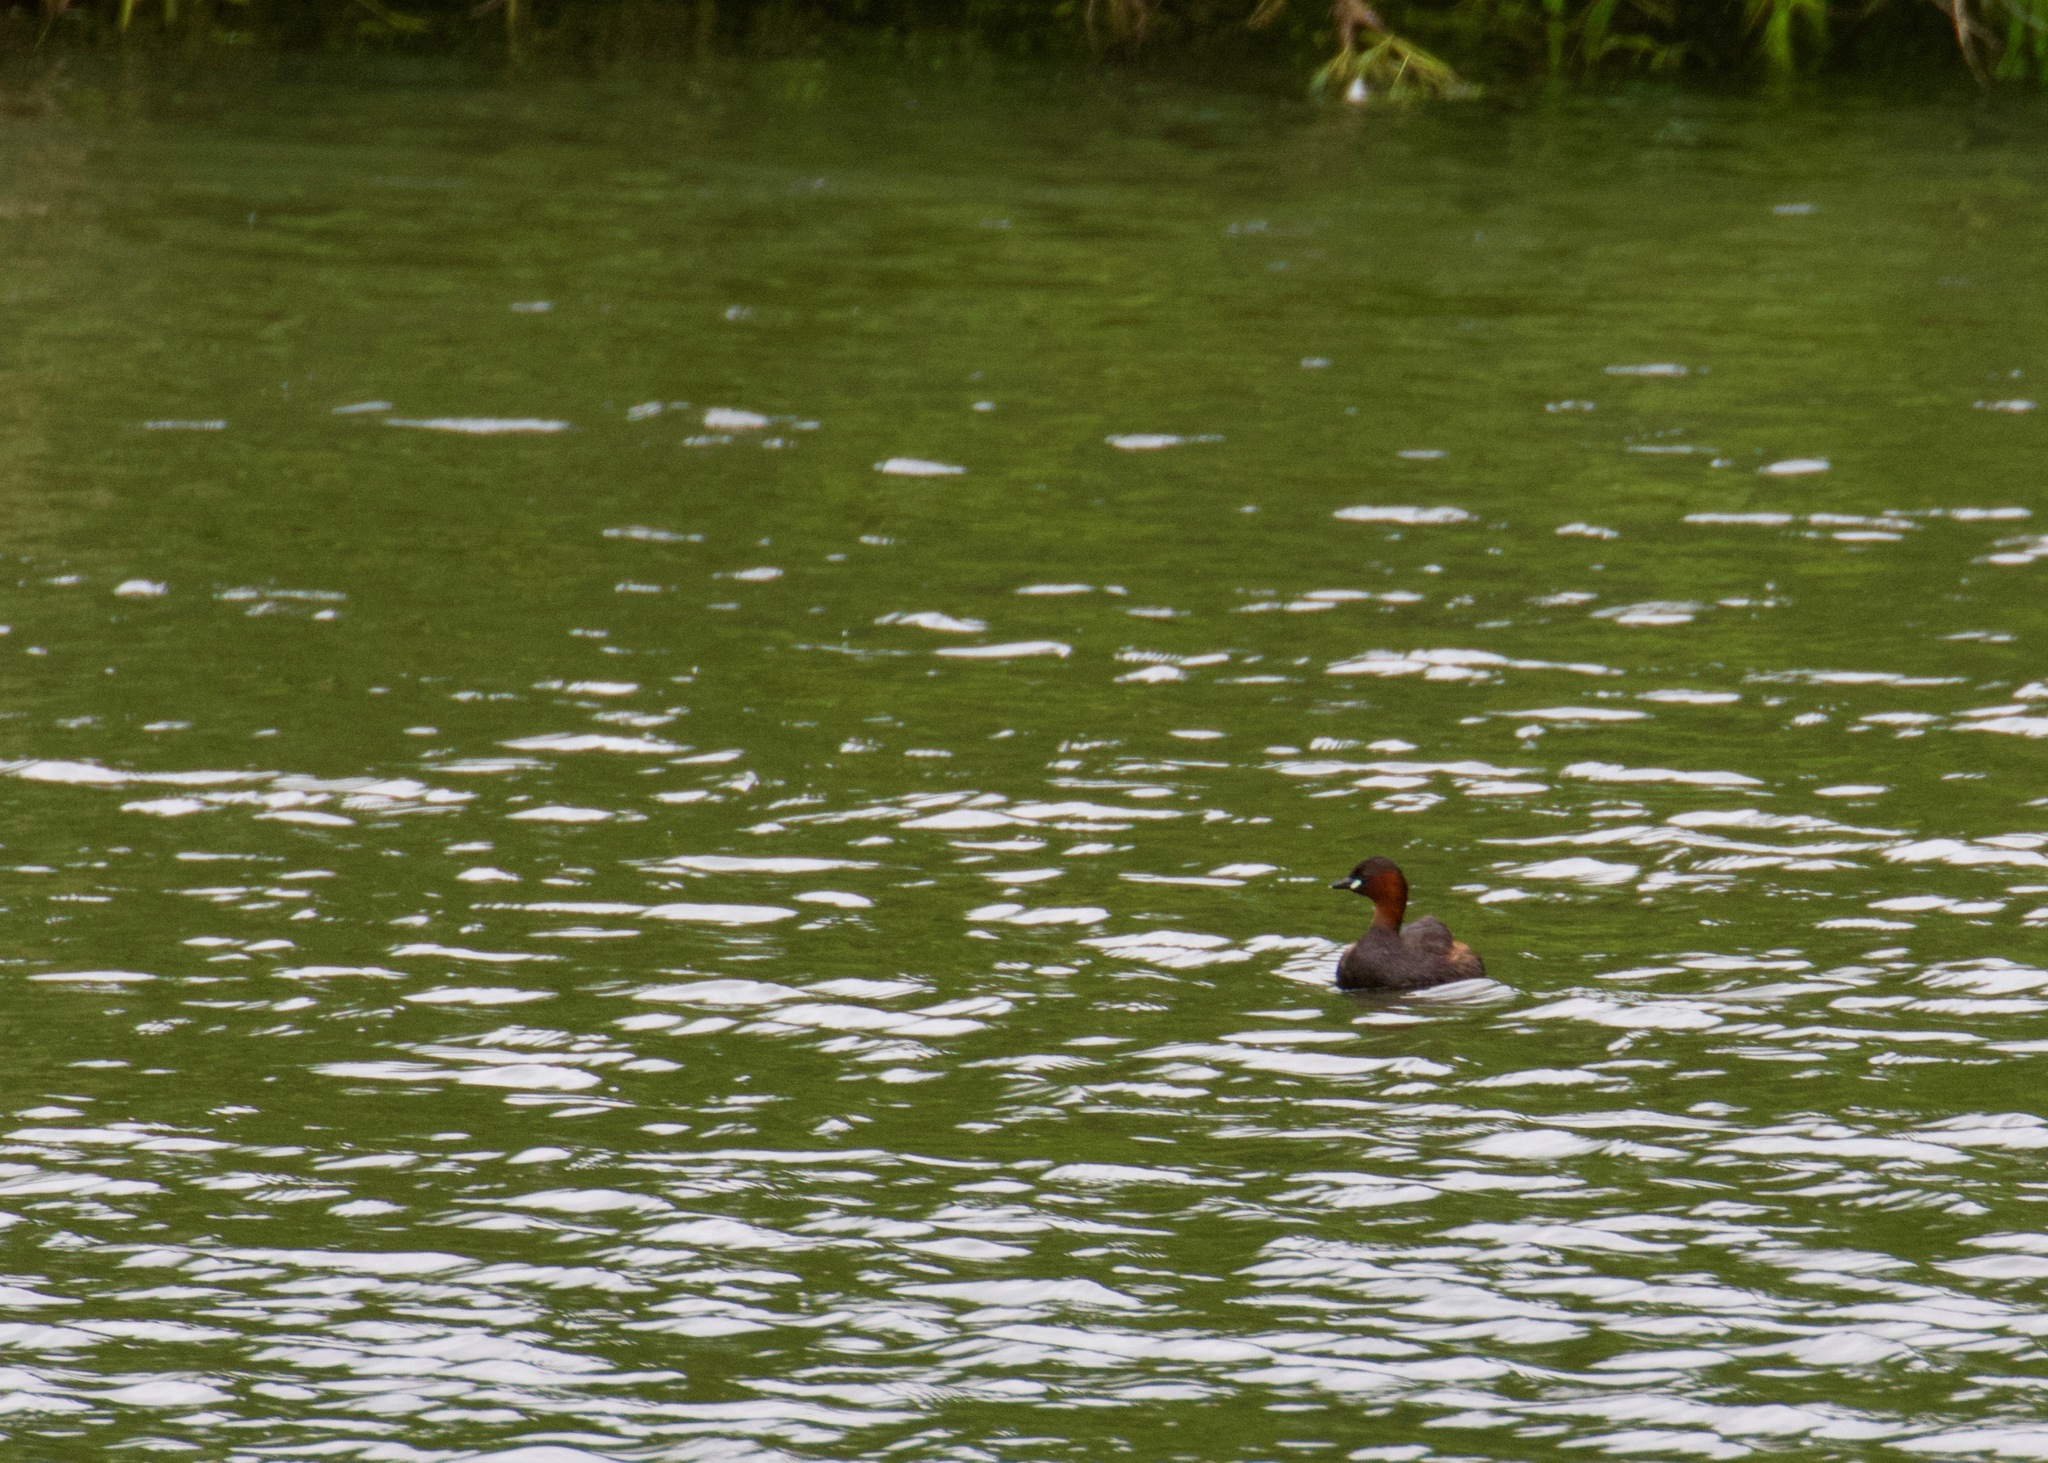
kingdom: Animalia
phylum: Chordata
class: Aves
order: Podicipediformes
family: Podicipedidae
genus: Tachybaptus
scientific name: Tachybaptus ruficollis
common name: Little grebe
